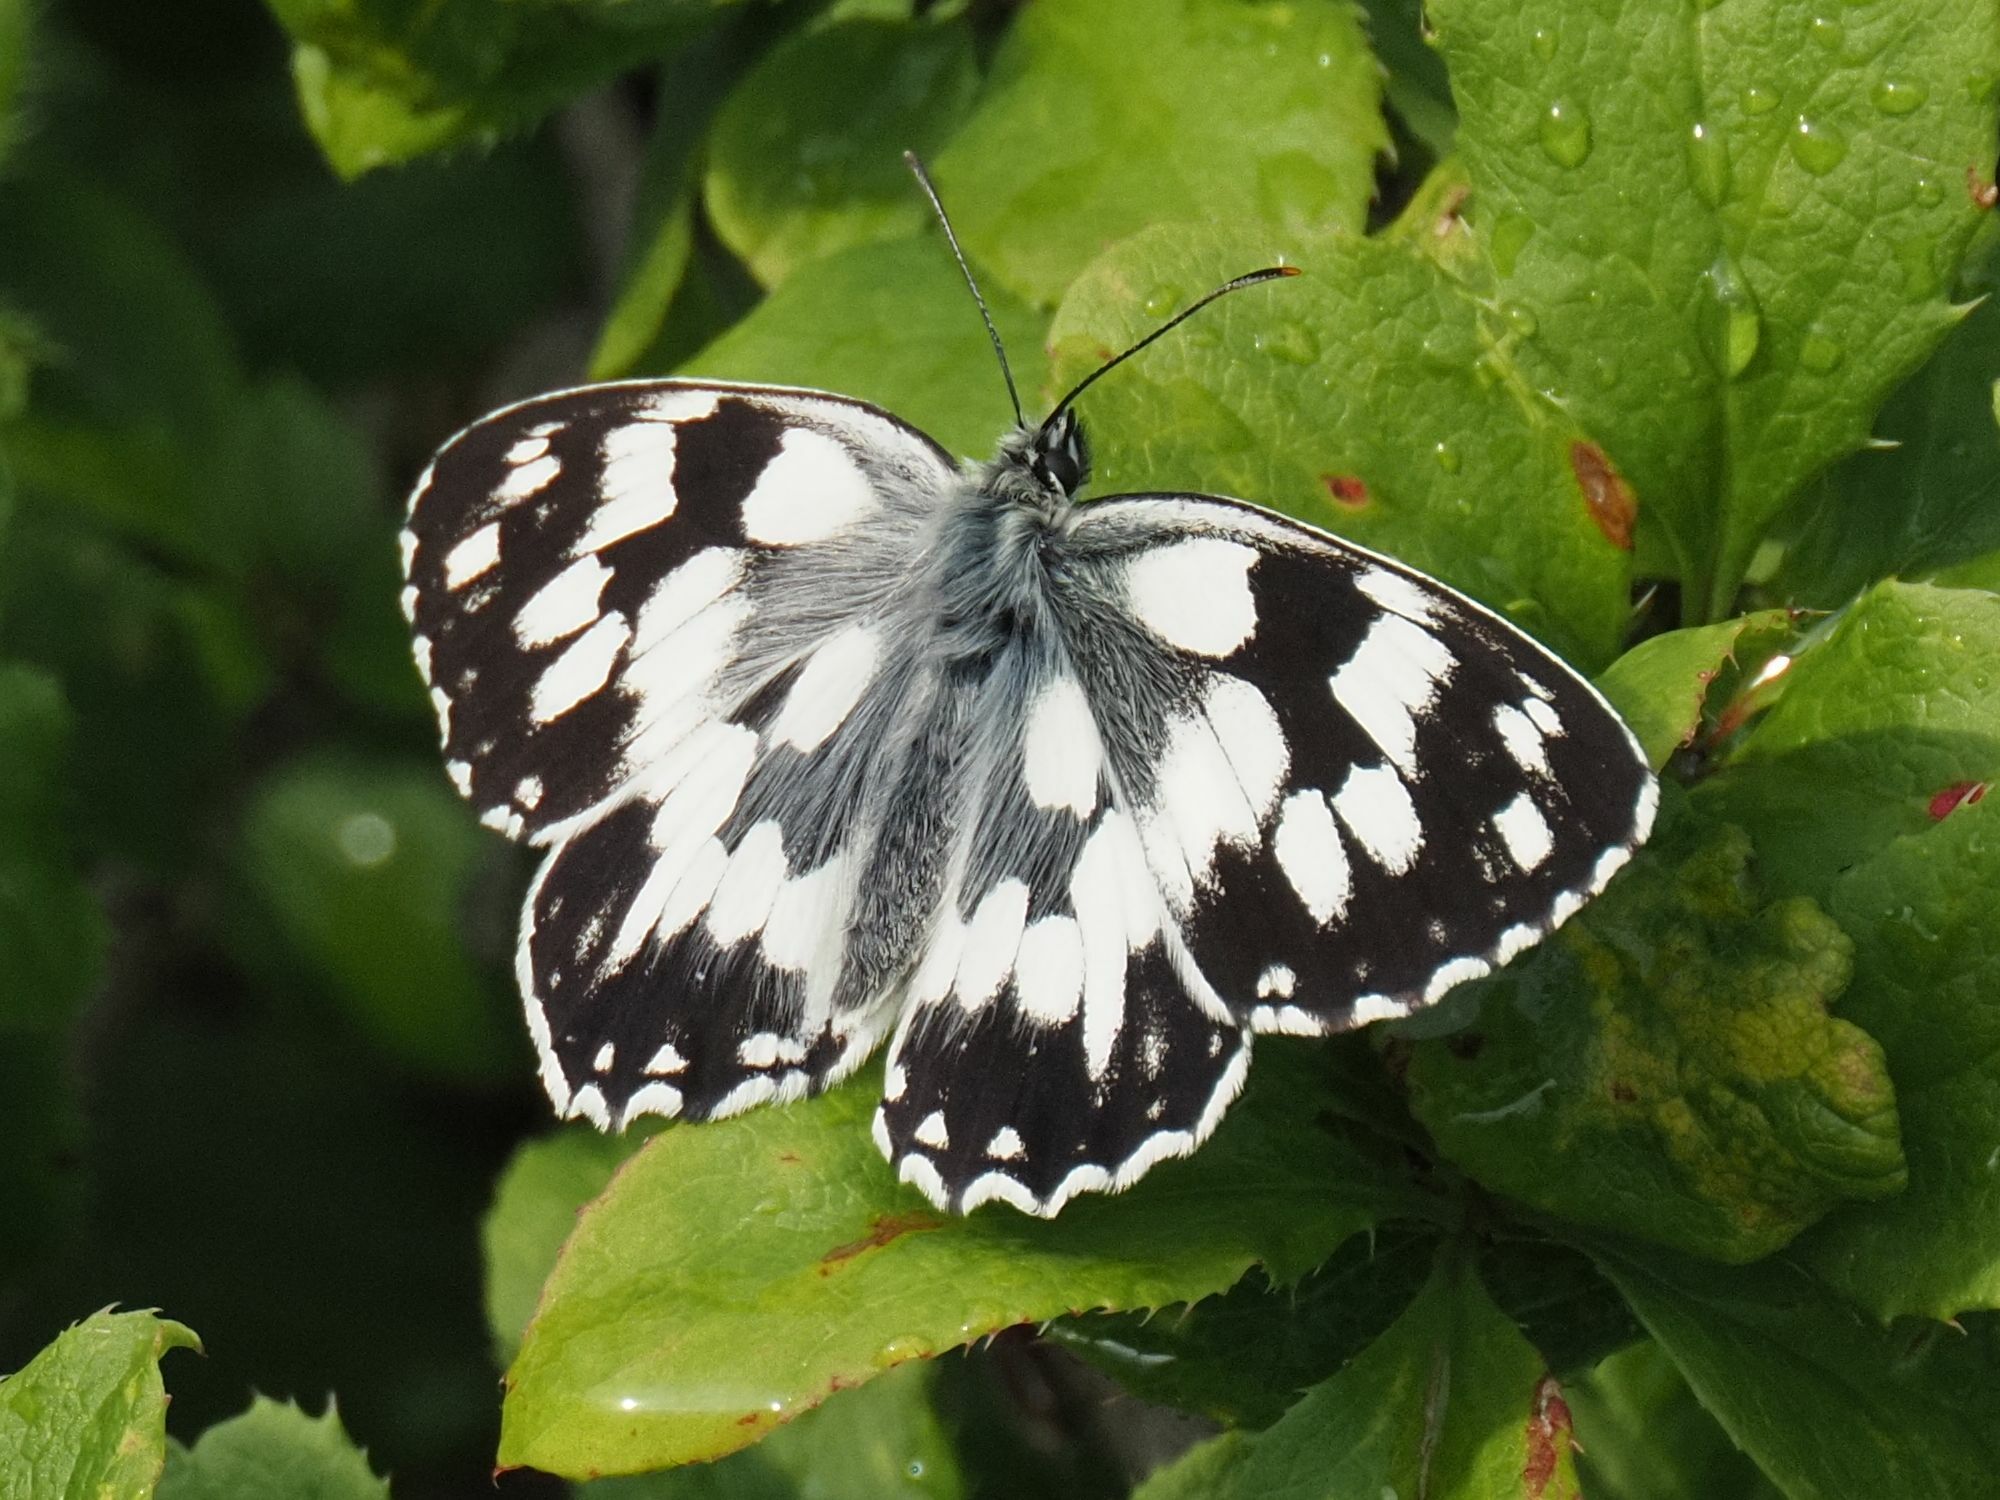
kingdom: Animalia
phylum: Arthropoda
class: Insecta
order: Lepidoptera
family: Nymphalidae
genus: Melanargia
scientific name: Melanargia galathea
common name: Marbled white
